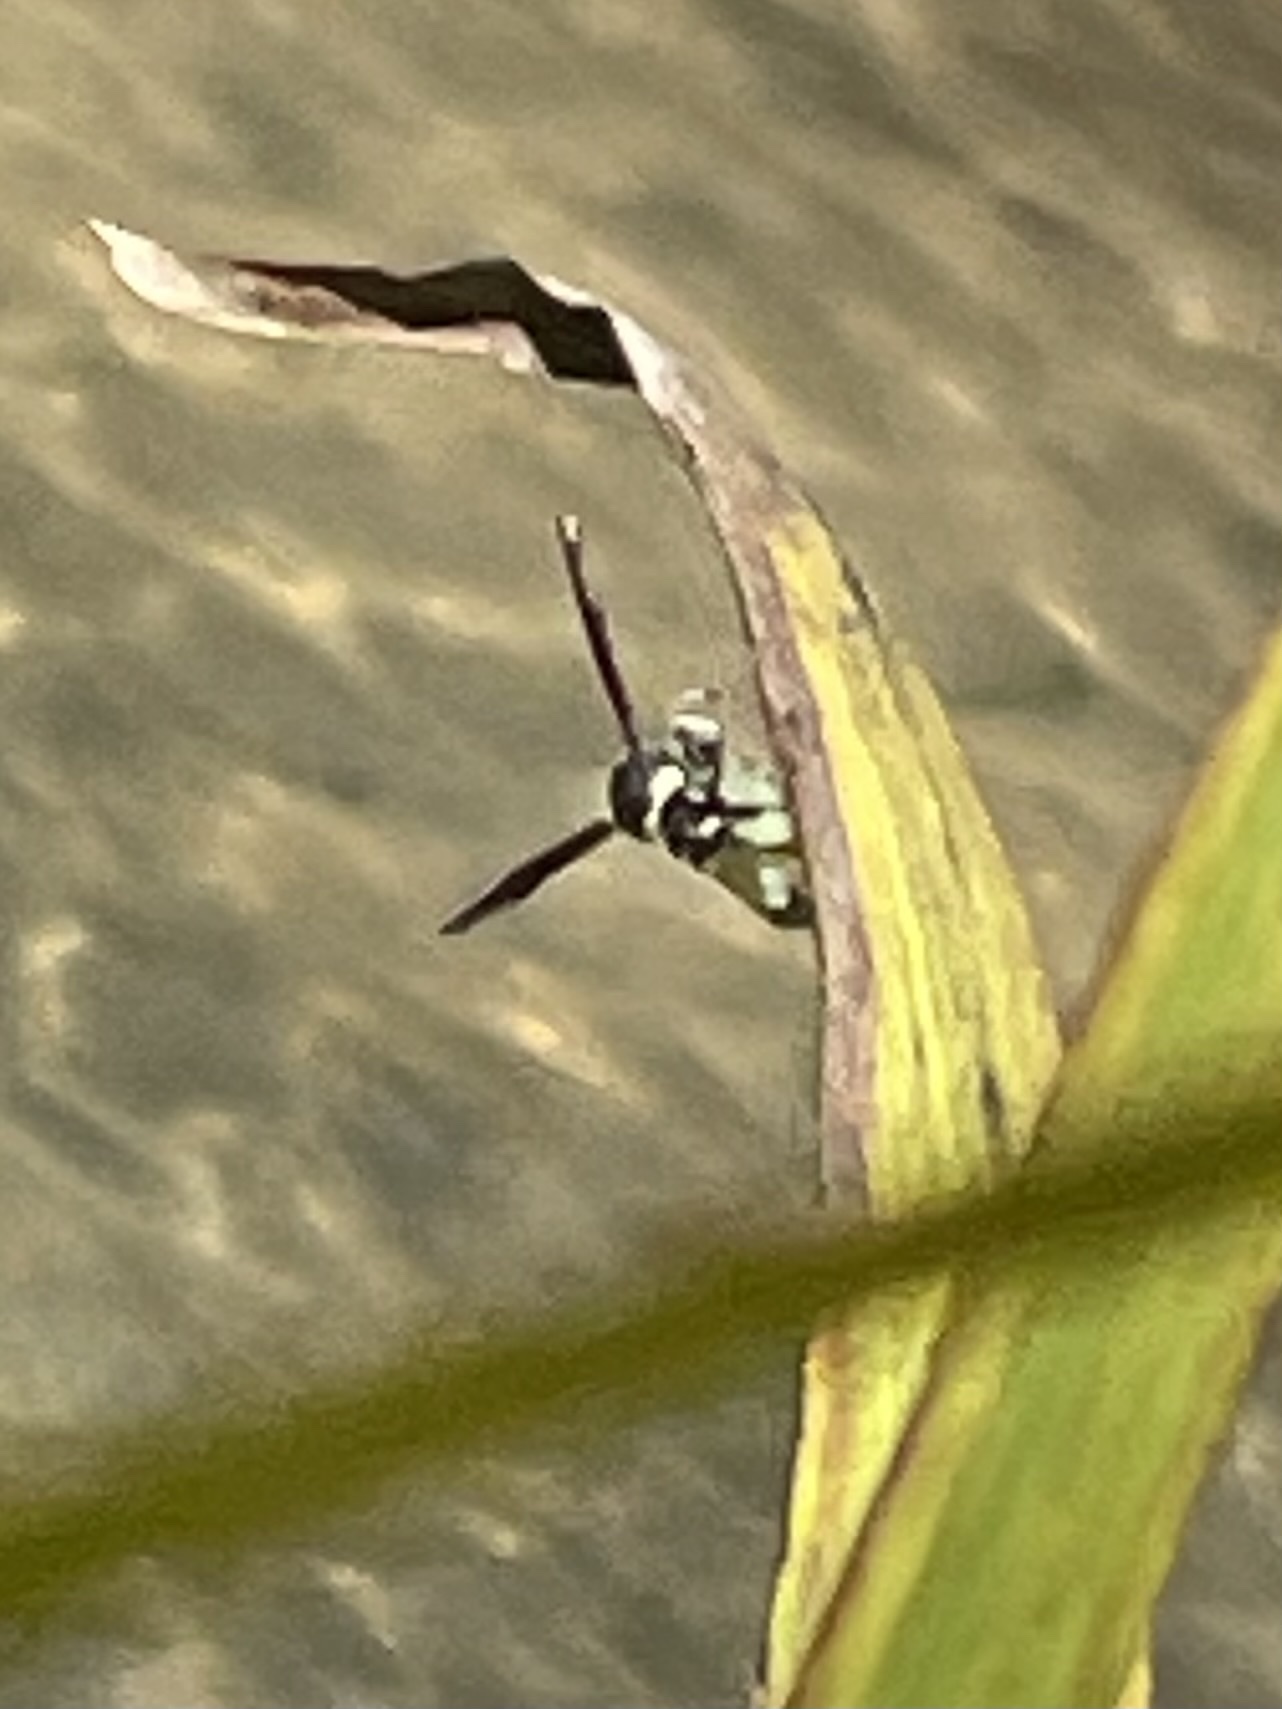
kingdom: Animalia
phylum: Arthropoda
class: Insecta
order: Hymenoptera
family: Vespidae
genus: Eumenes
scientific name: Eumenes fraternus
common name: Fraternal potter wasp
